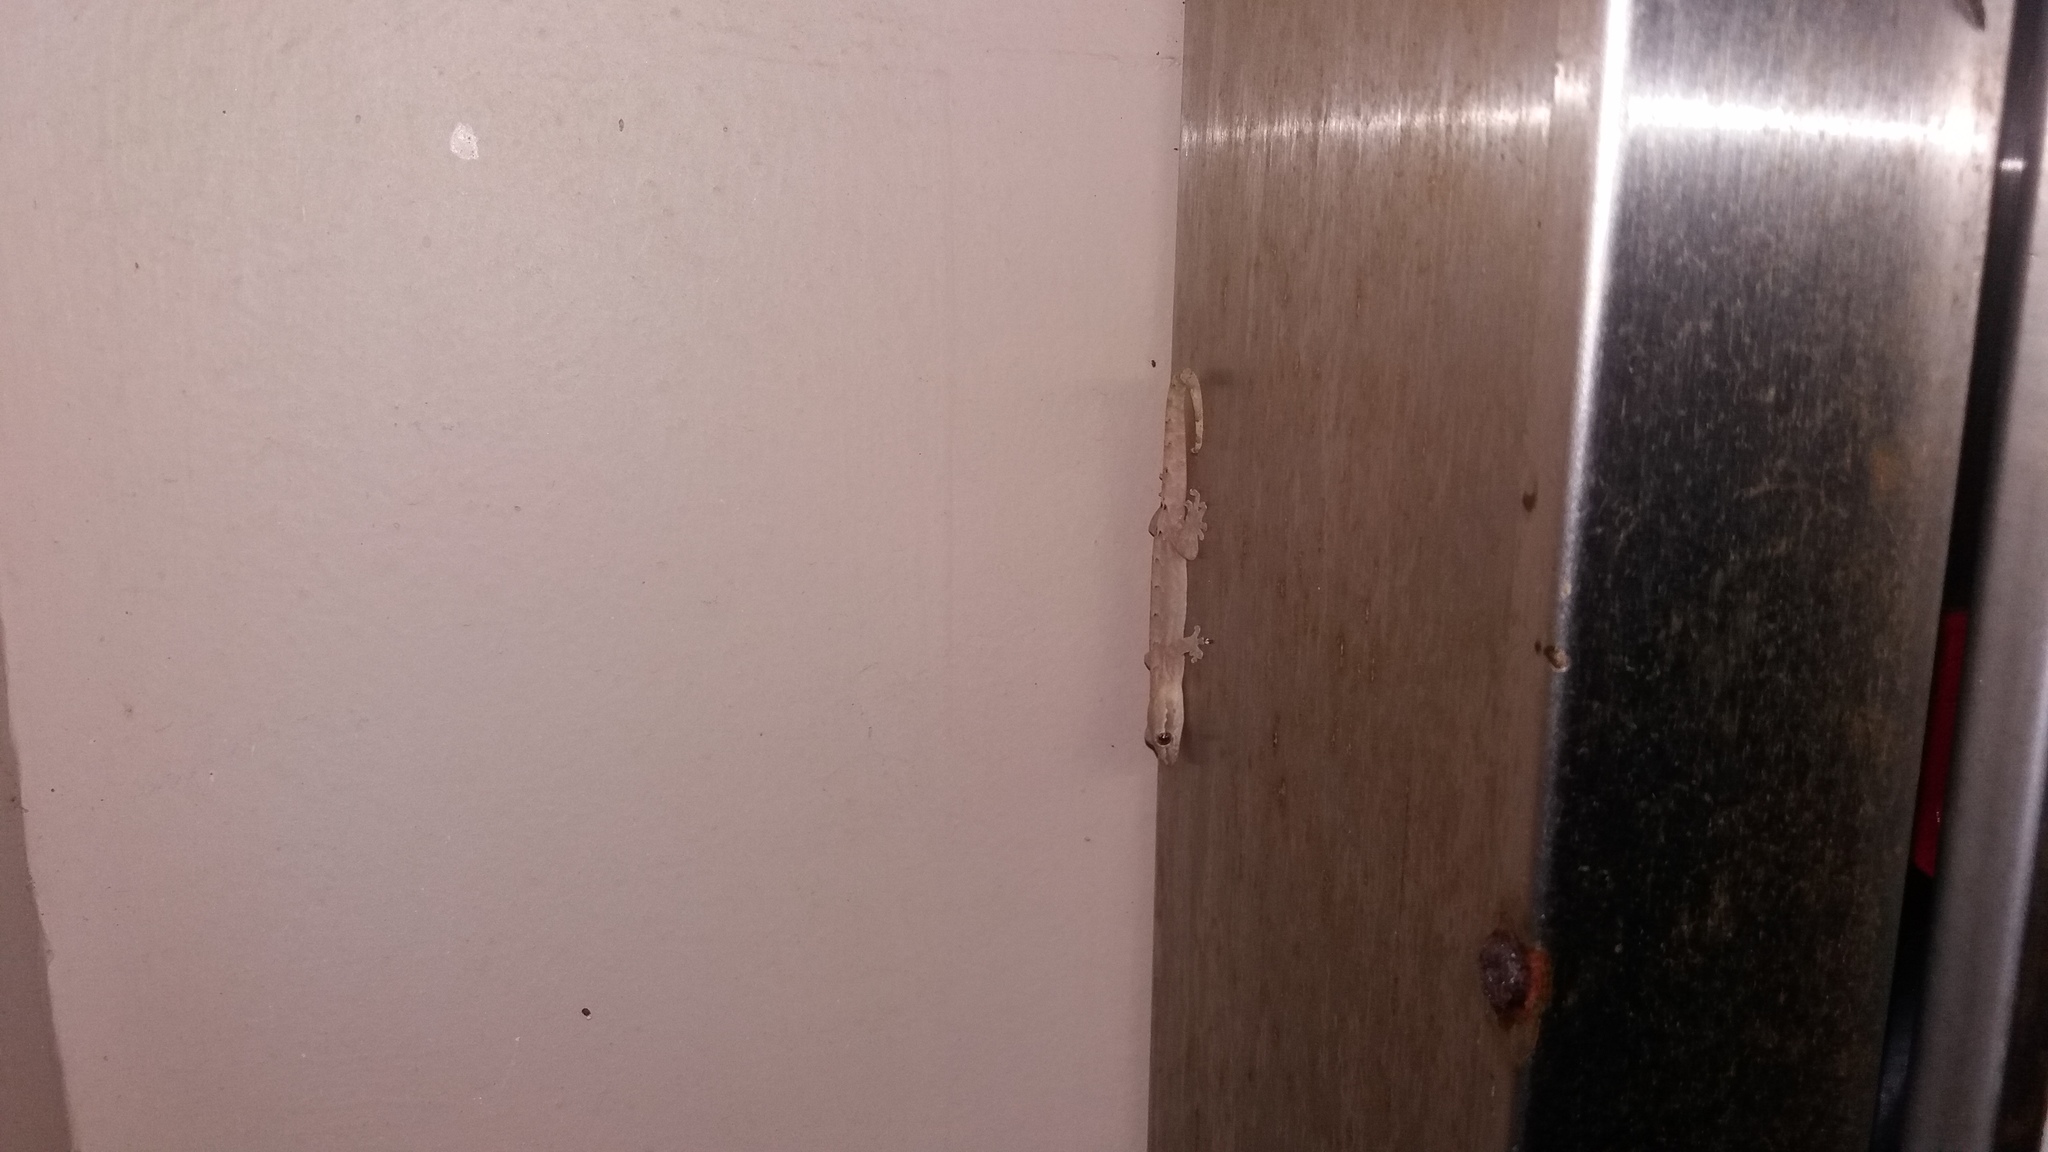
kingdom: Animalia
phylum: Chordata
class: Squamata
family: Gekkonidae
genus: Lepidodactylus
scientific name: Lepidodactylus lugubris
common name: Mourning gecko
